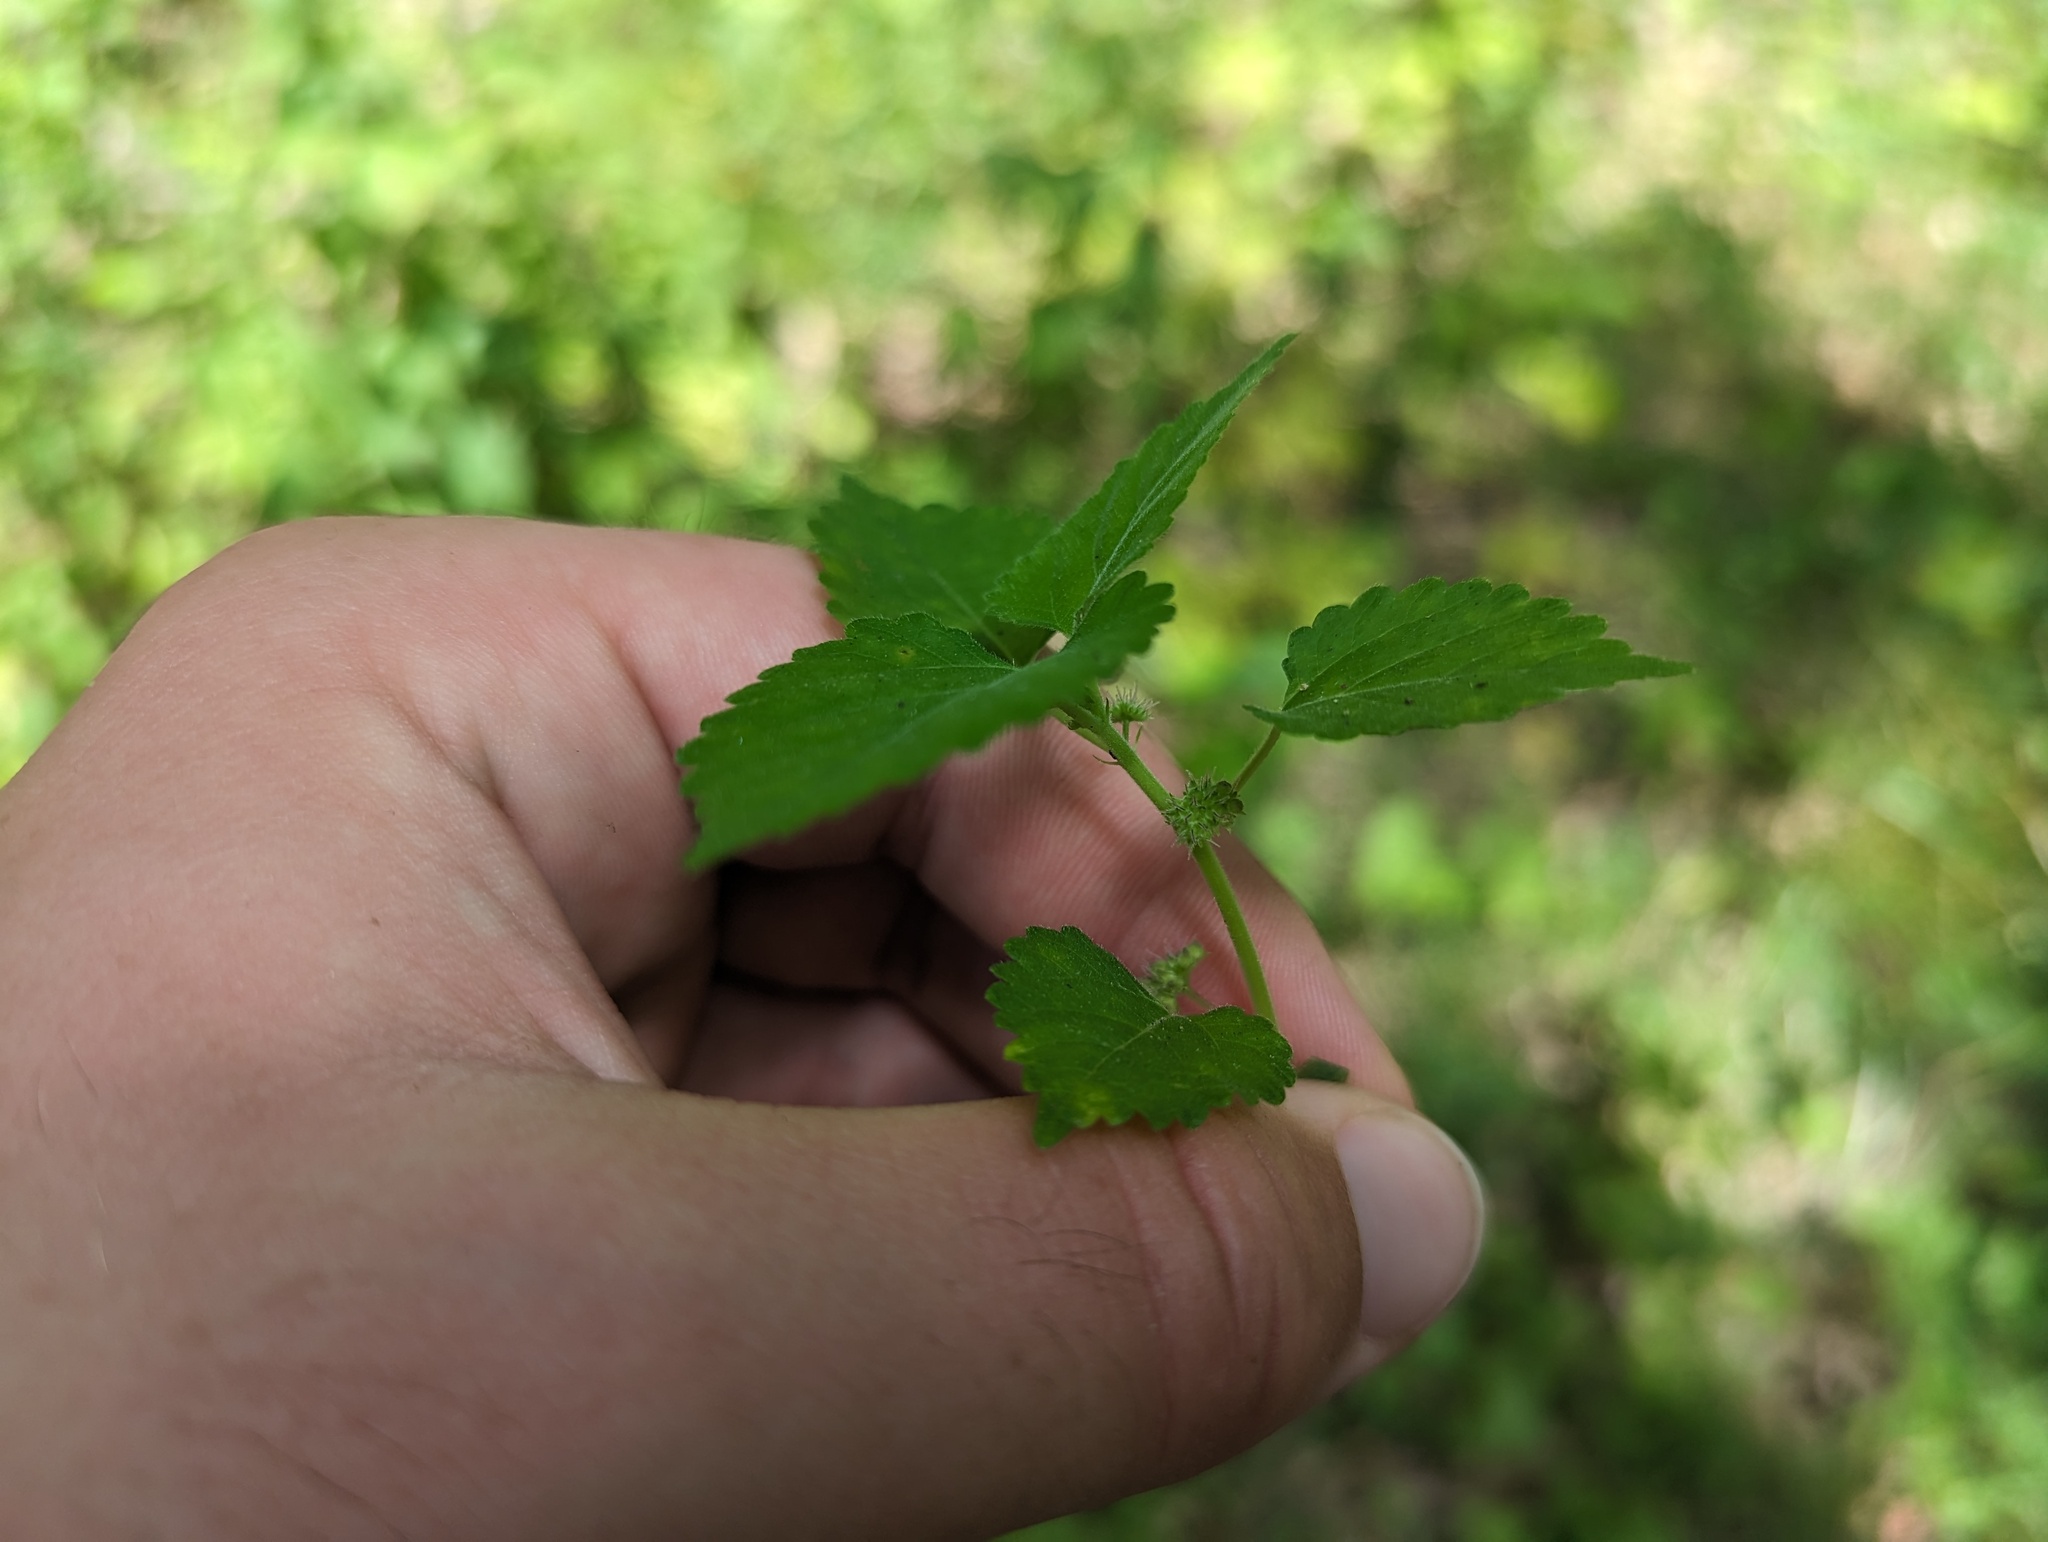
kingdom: Plantae
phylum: Tracheophyta
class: Magnoliopsida
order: Rosales
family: Moraceae
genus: Fatoua
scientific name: Fatoua villosa
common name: Hairy crabweed
